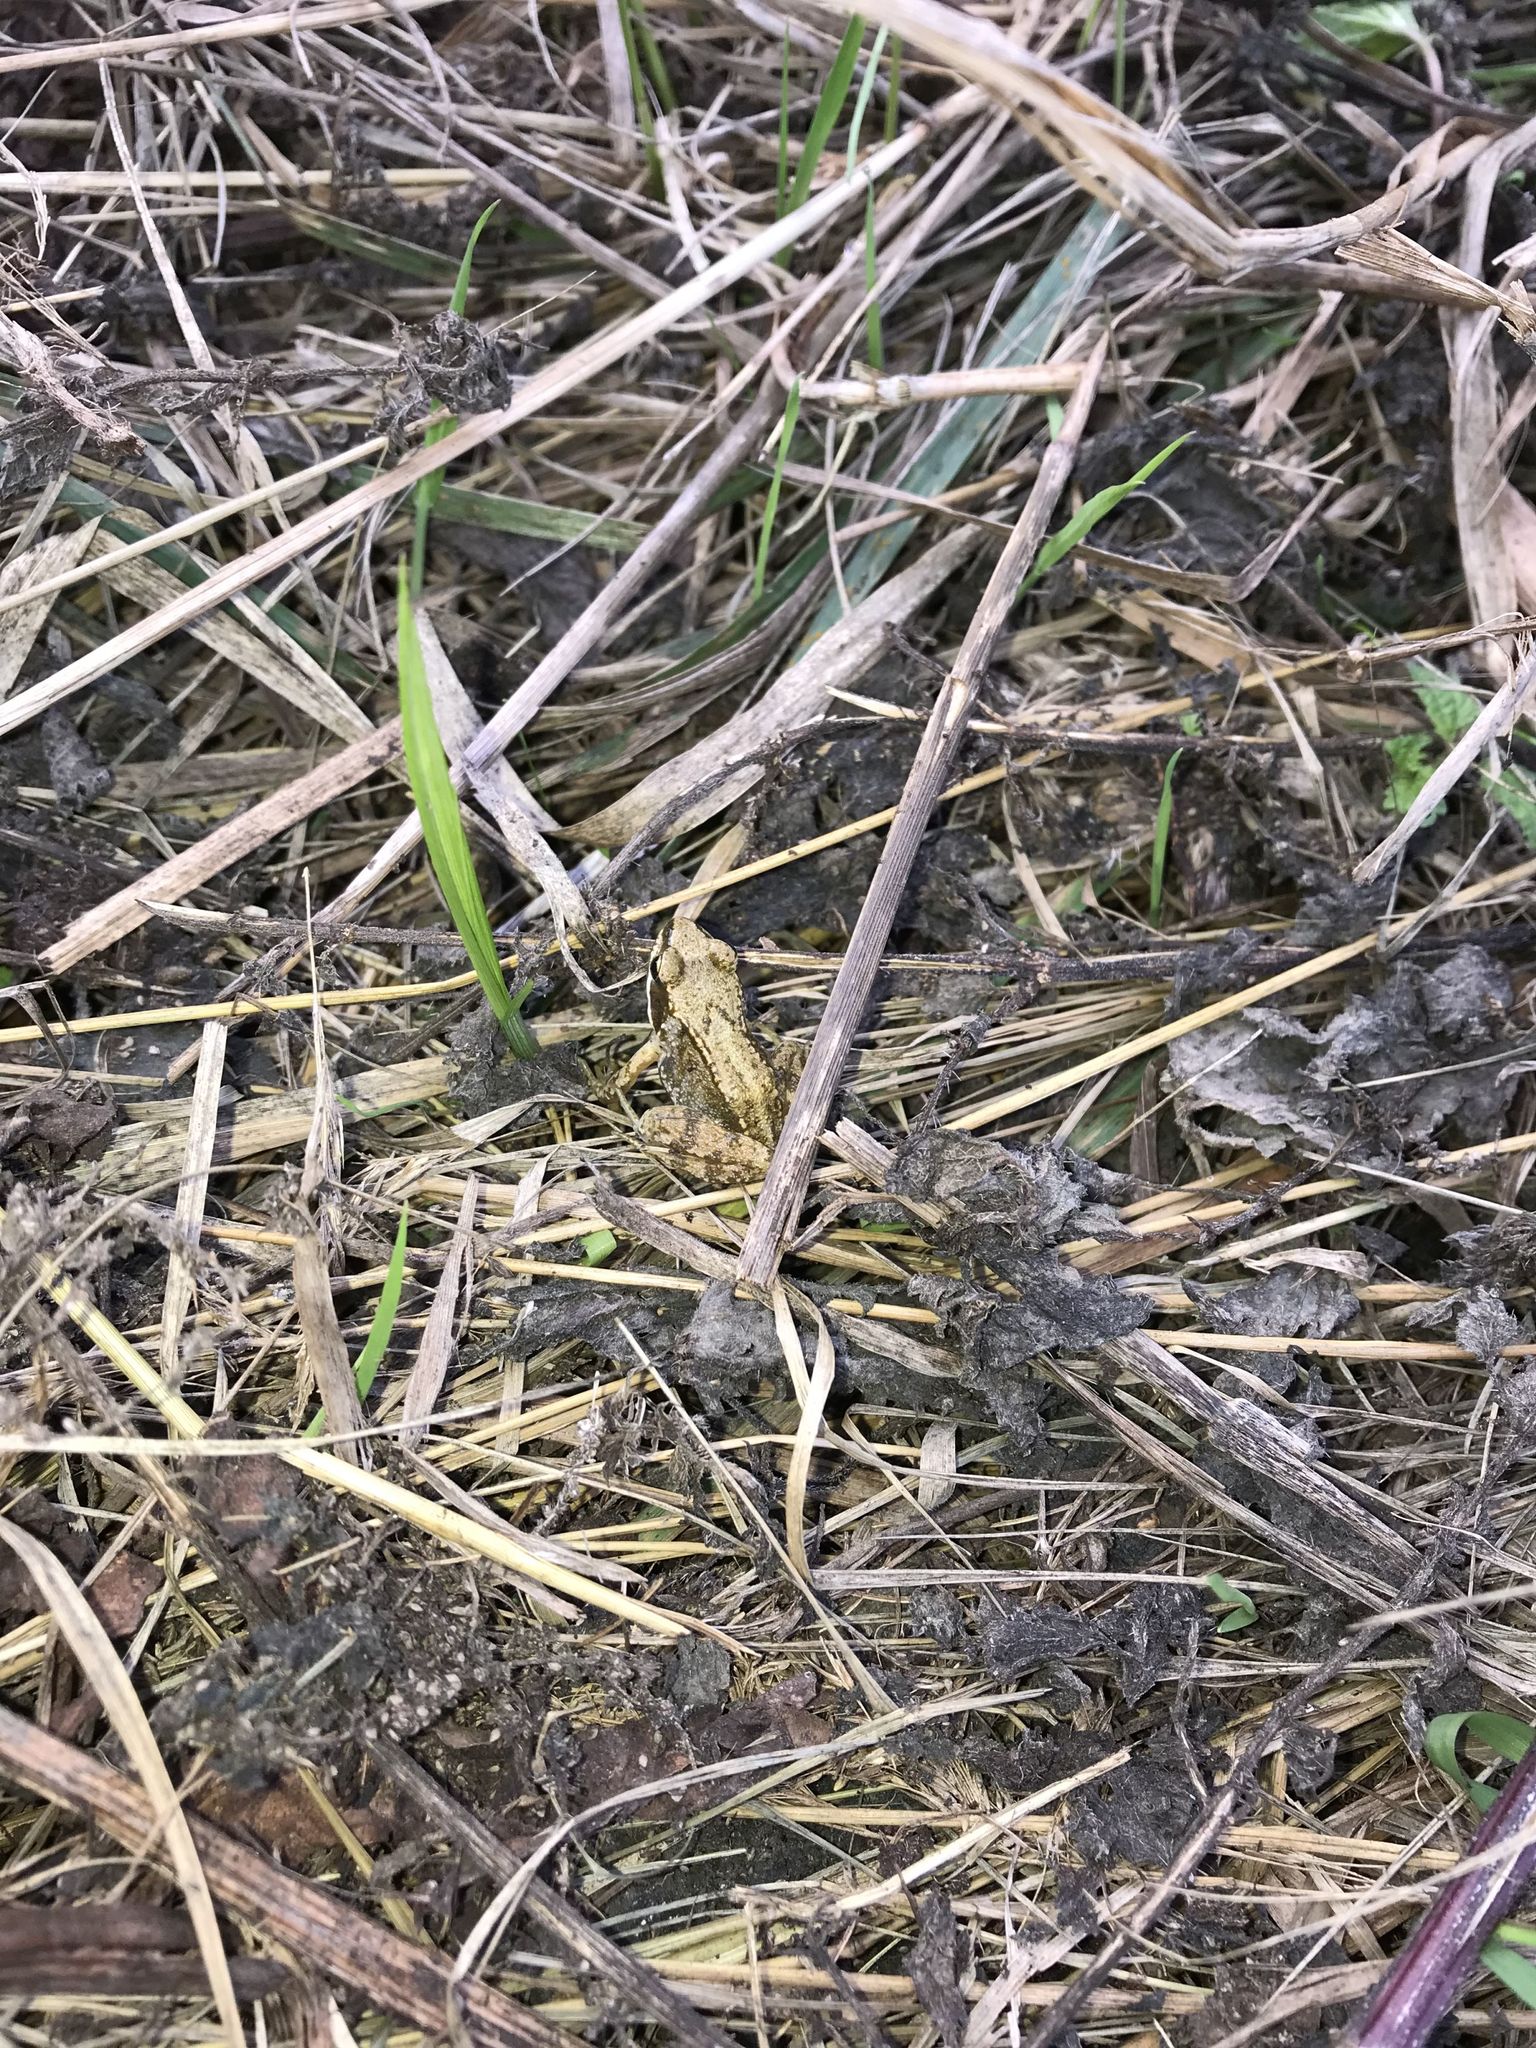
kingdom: Animalia
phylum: Chordata
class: Amphibia
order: Anura
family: Ranidae
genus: Rana
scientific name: Rana temporaria
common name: Common frog
